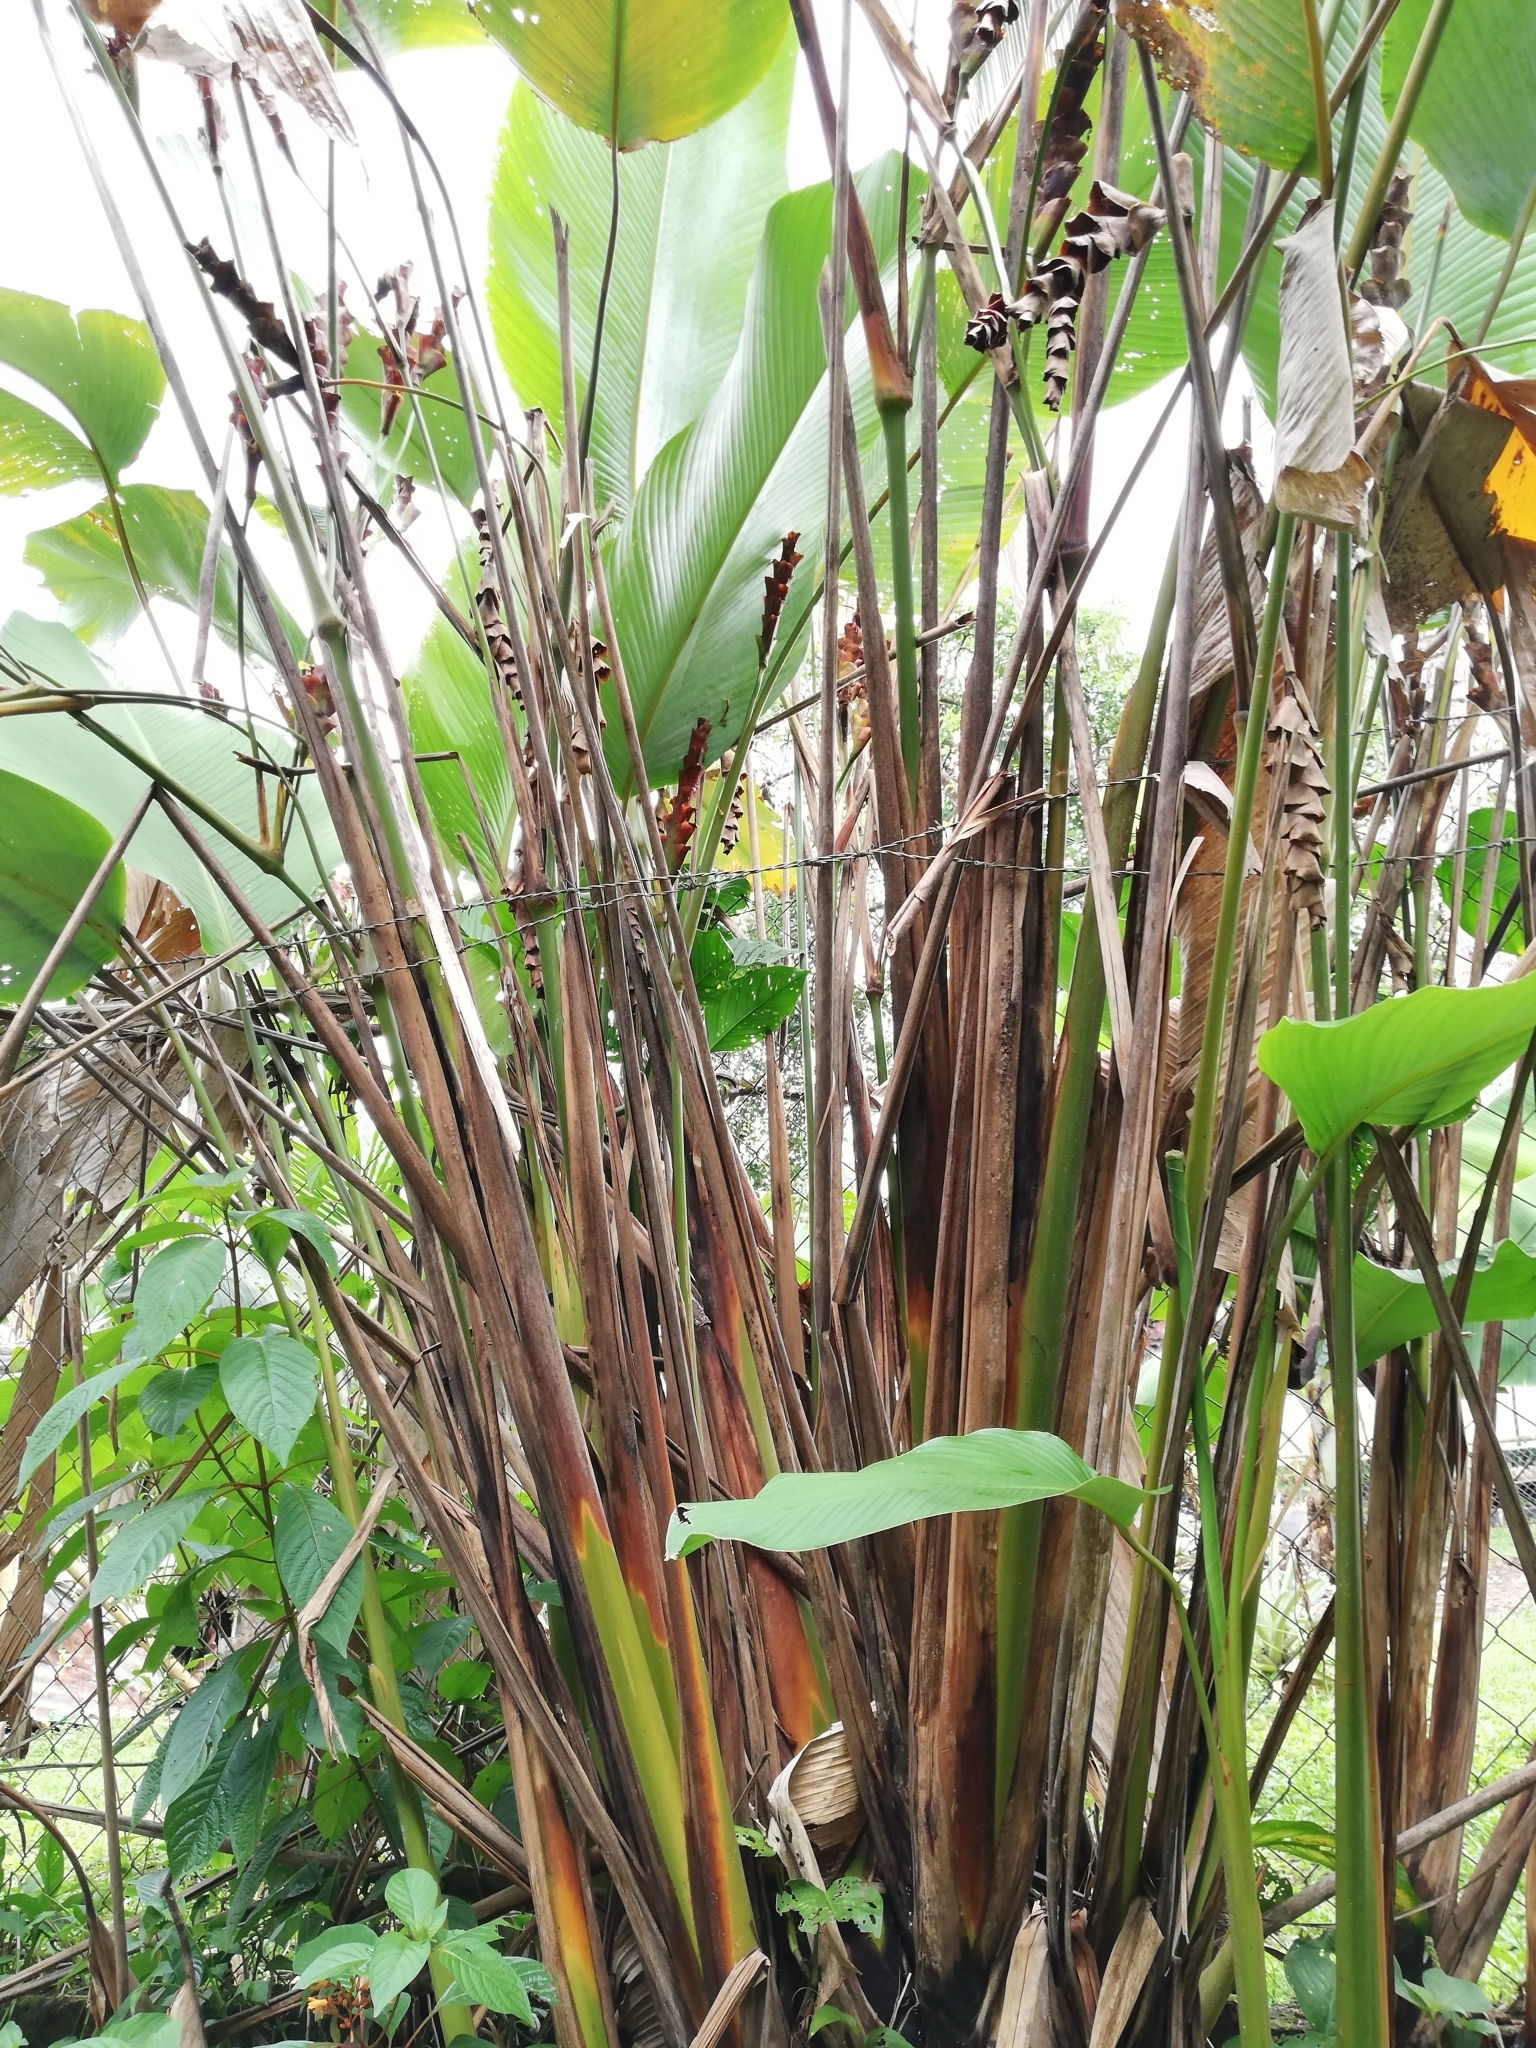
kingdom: Plantae
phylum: Tracheophyta
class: Liliopsida
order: Zingiberales
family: Marantaceae
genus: Calathea
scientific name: Calathea lutea
